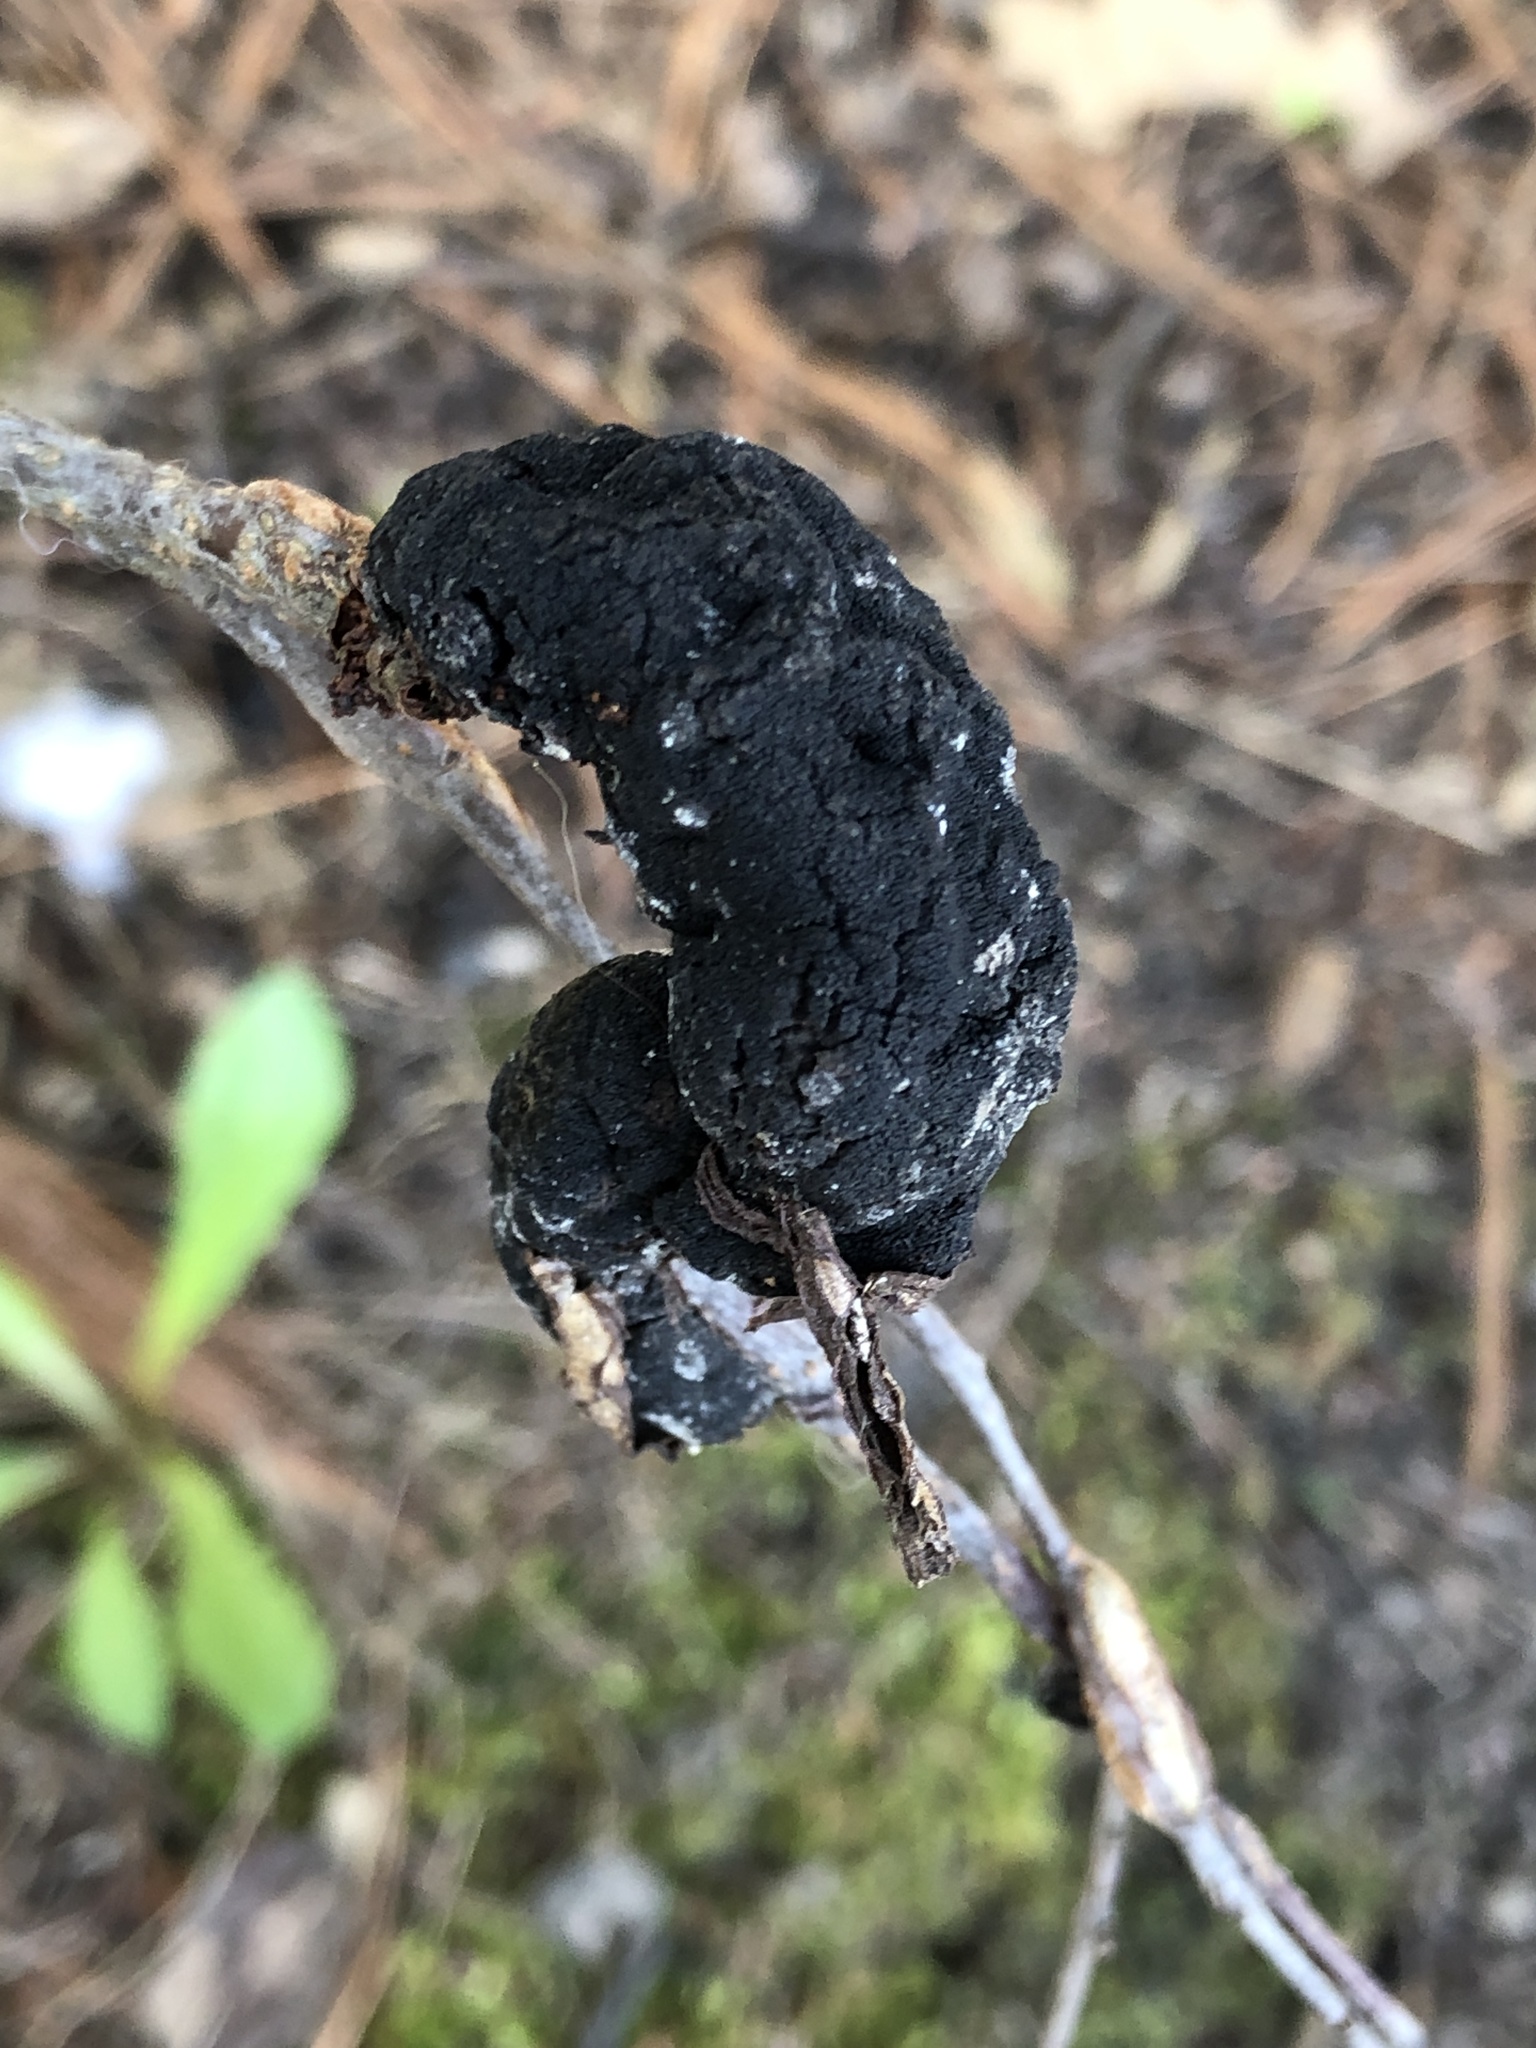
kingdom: Fungi
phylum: Ascomycota
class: Dothideomycetes
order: Venturiales
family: Venturiaceae
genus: Apiosporina
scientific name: Apiosporina morbosa
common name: Black knot
